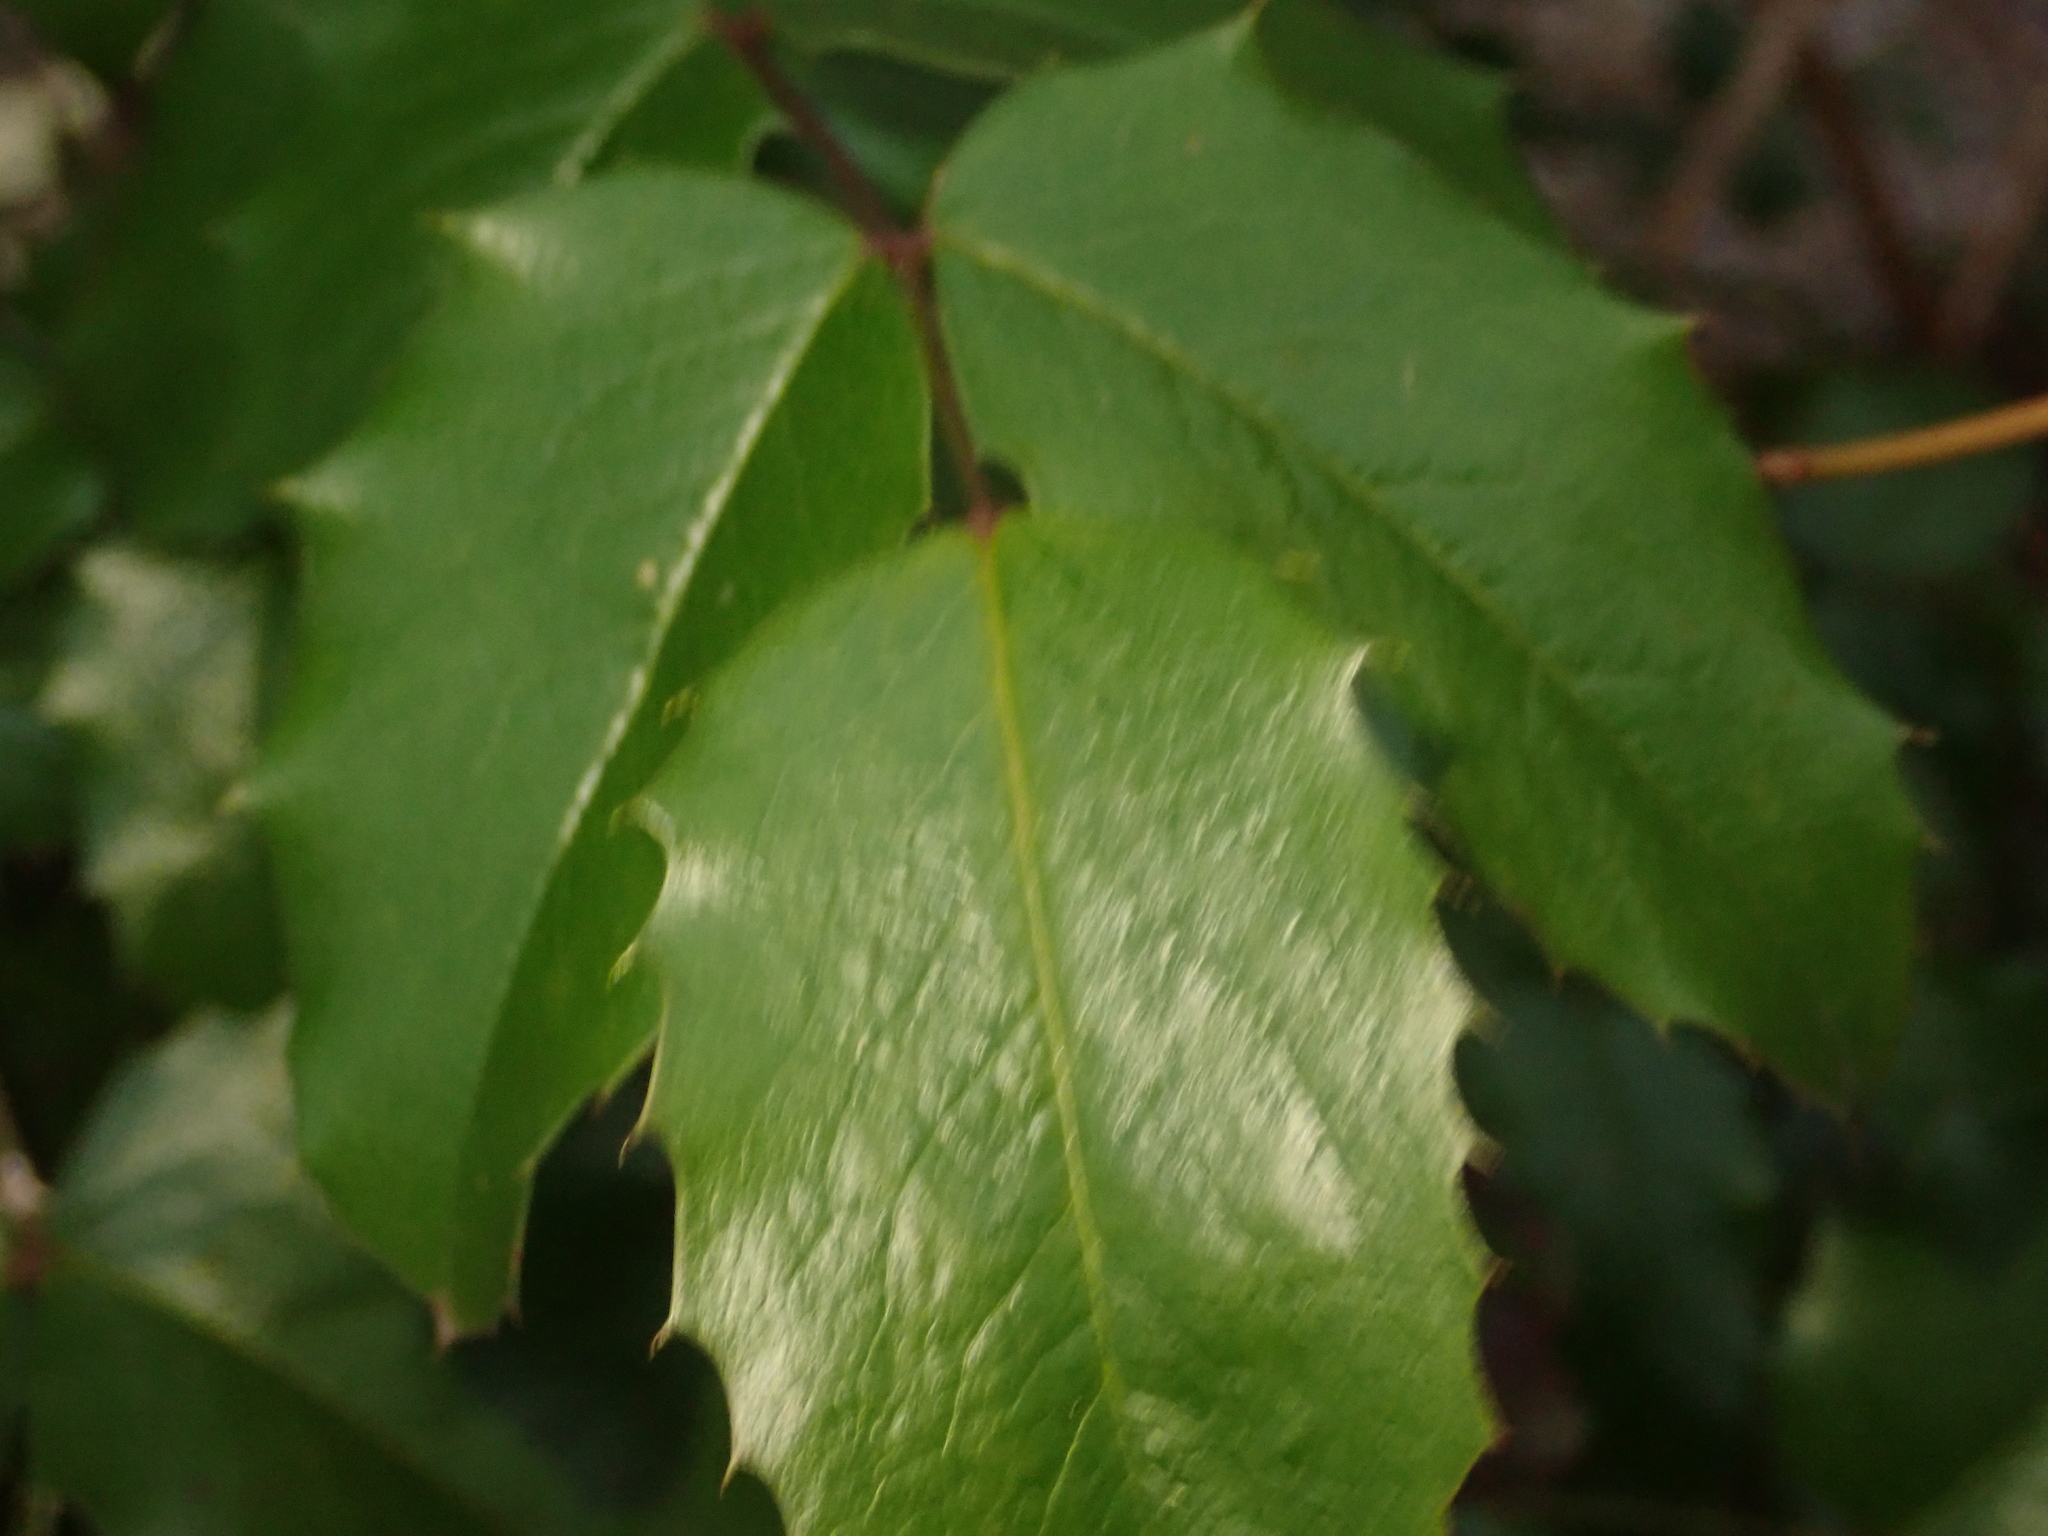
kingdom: Plantae
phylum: Tracheophyta
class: Magnoliopsida
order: Ranunculales
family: Berberidaceae
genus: Mahonia
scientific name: Mahonia aquifolium
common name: Oregon-grape
